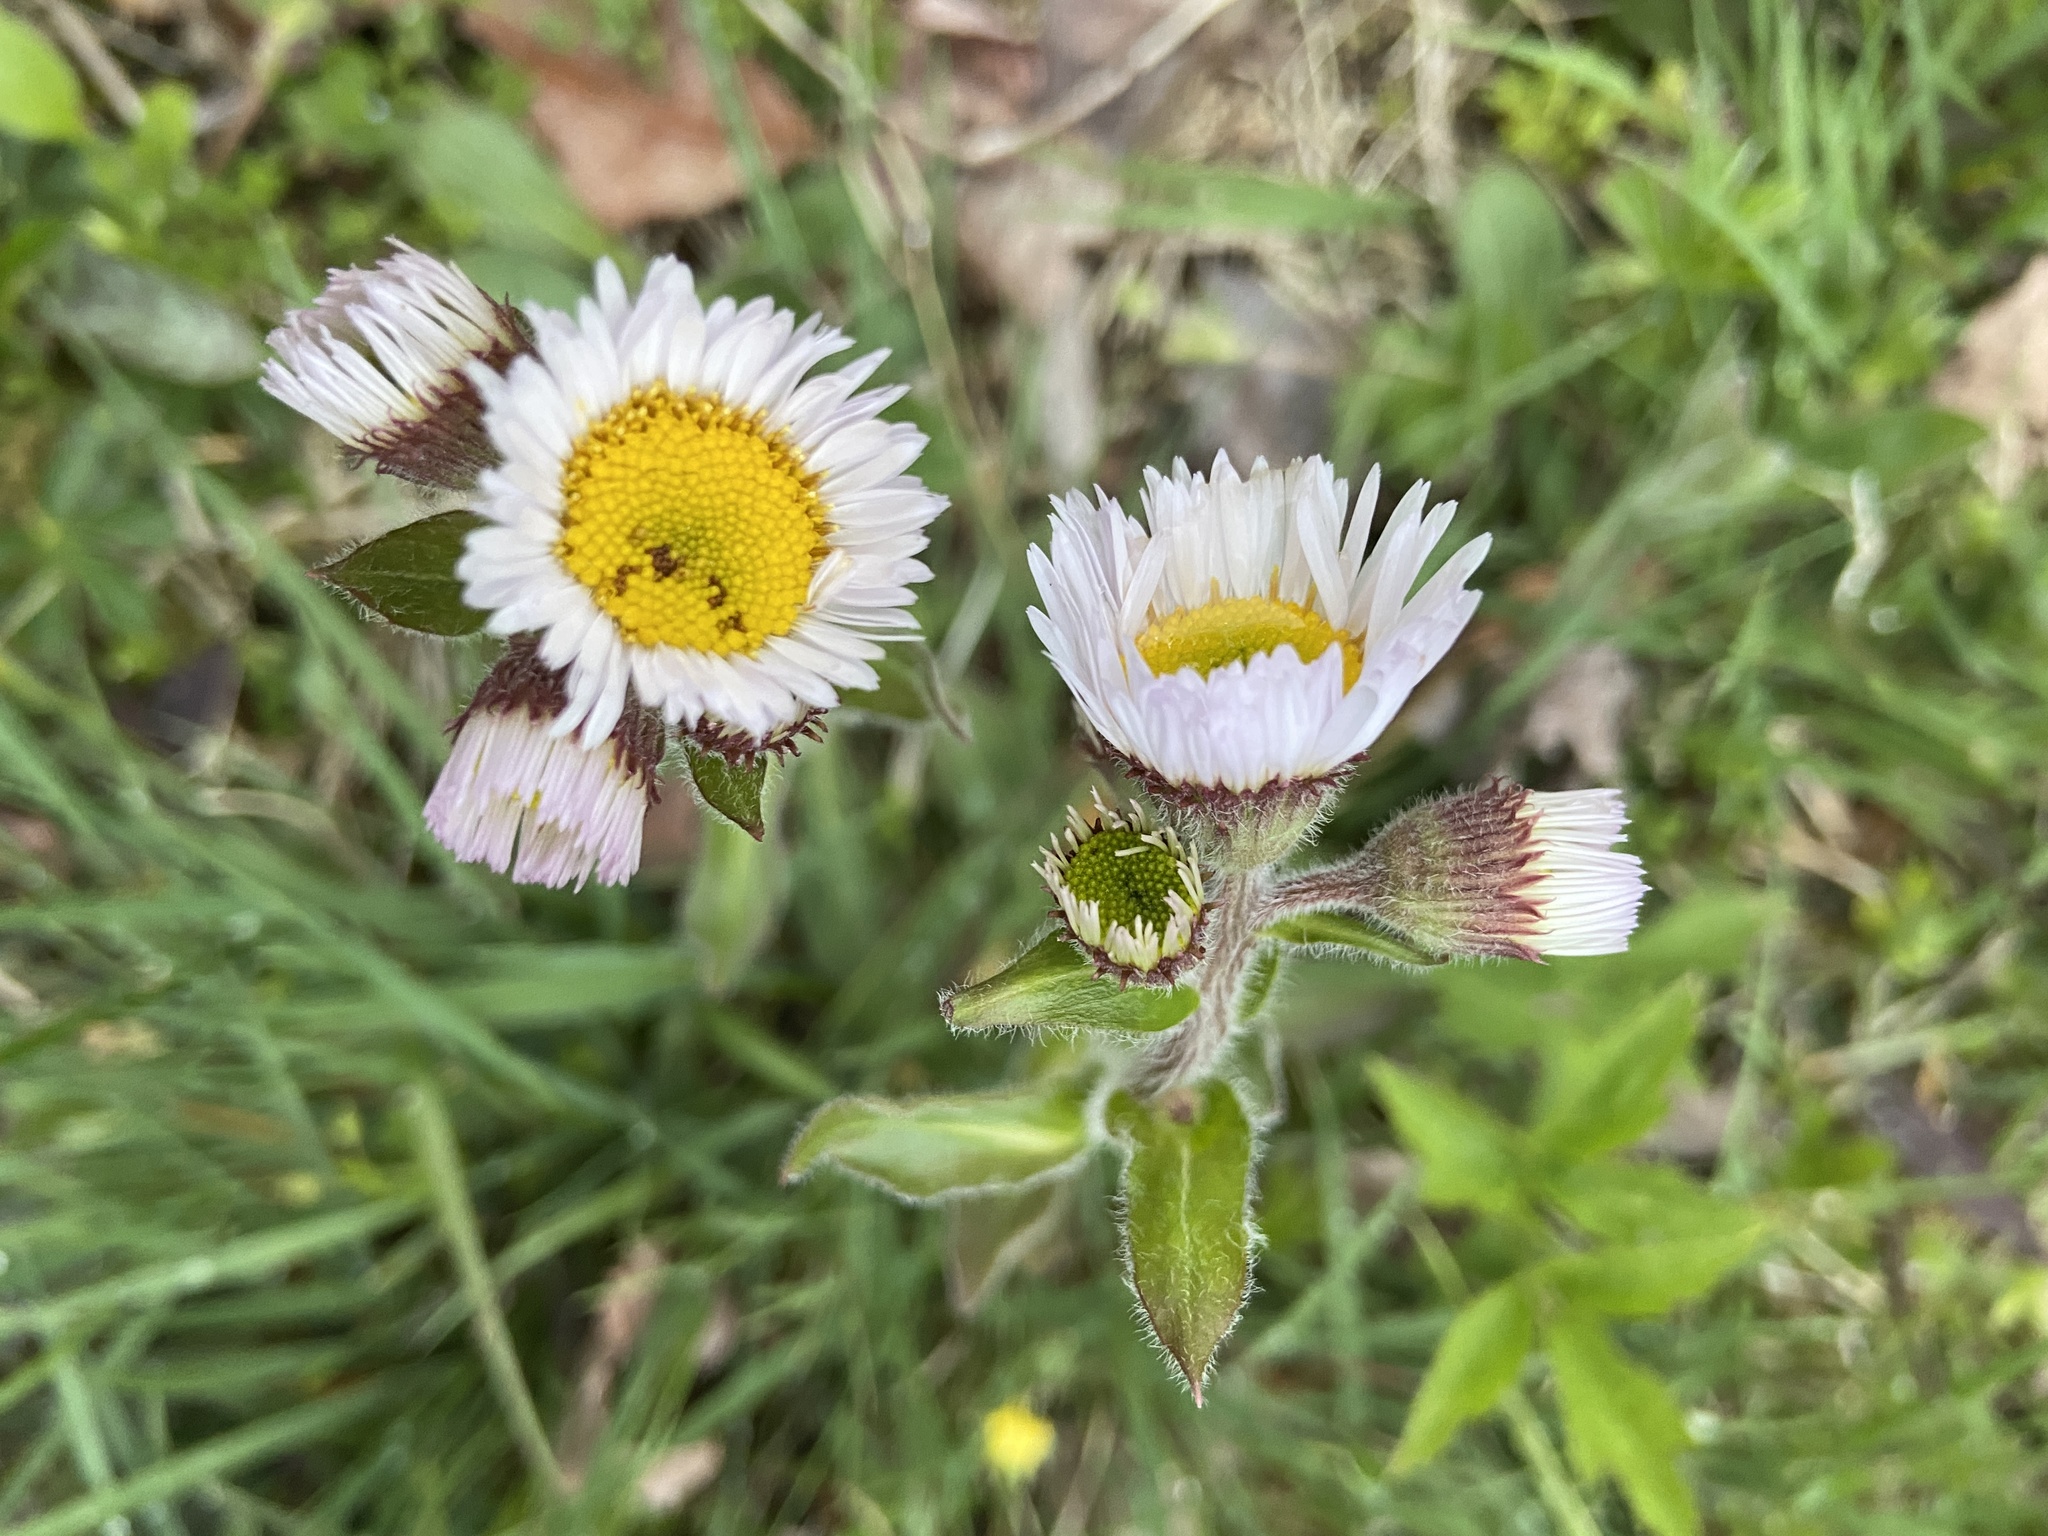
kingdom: Plantae
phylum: Tracheophyta
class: Magnoliopsida
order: Asterales
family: Asteraceae
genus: Erigeron
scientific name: Erigeron pulchellus
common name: Hairy fleabane
